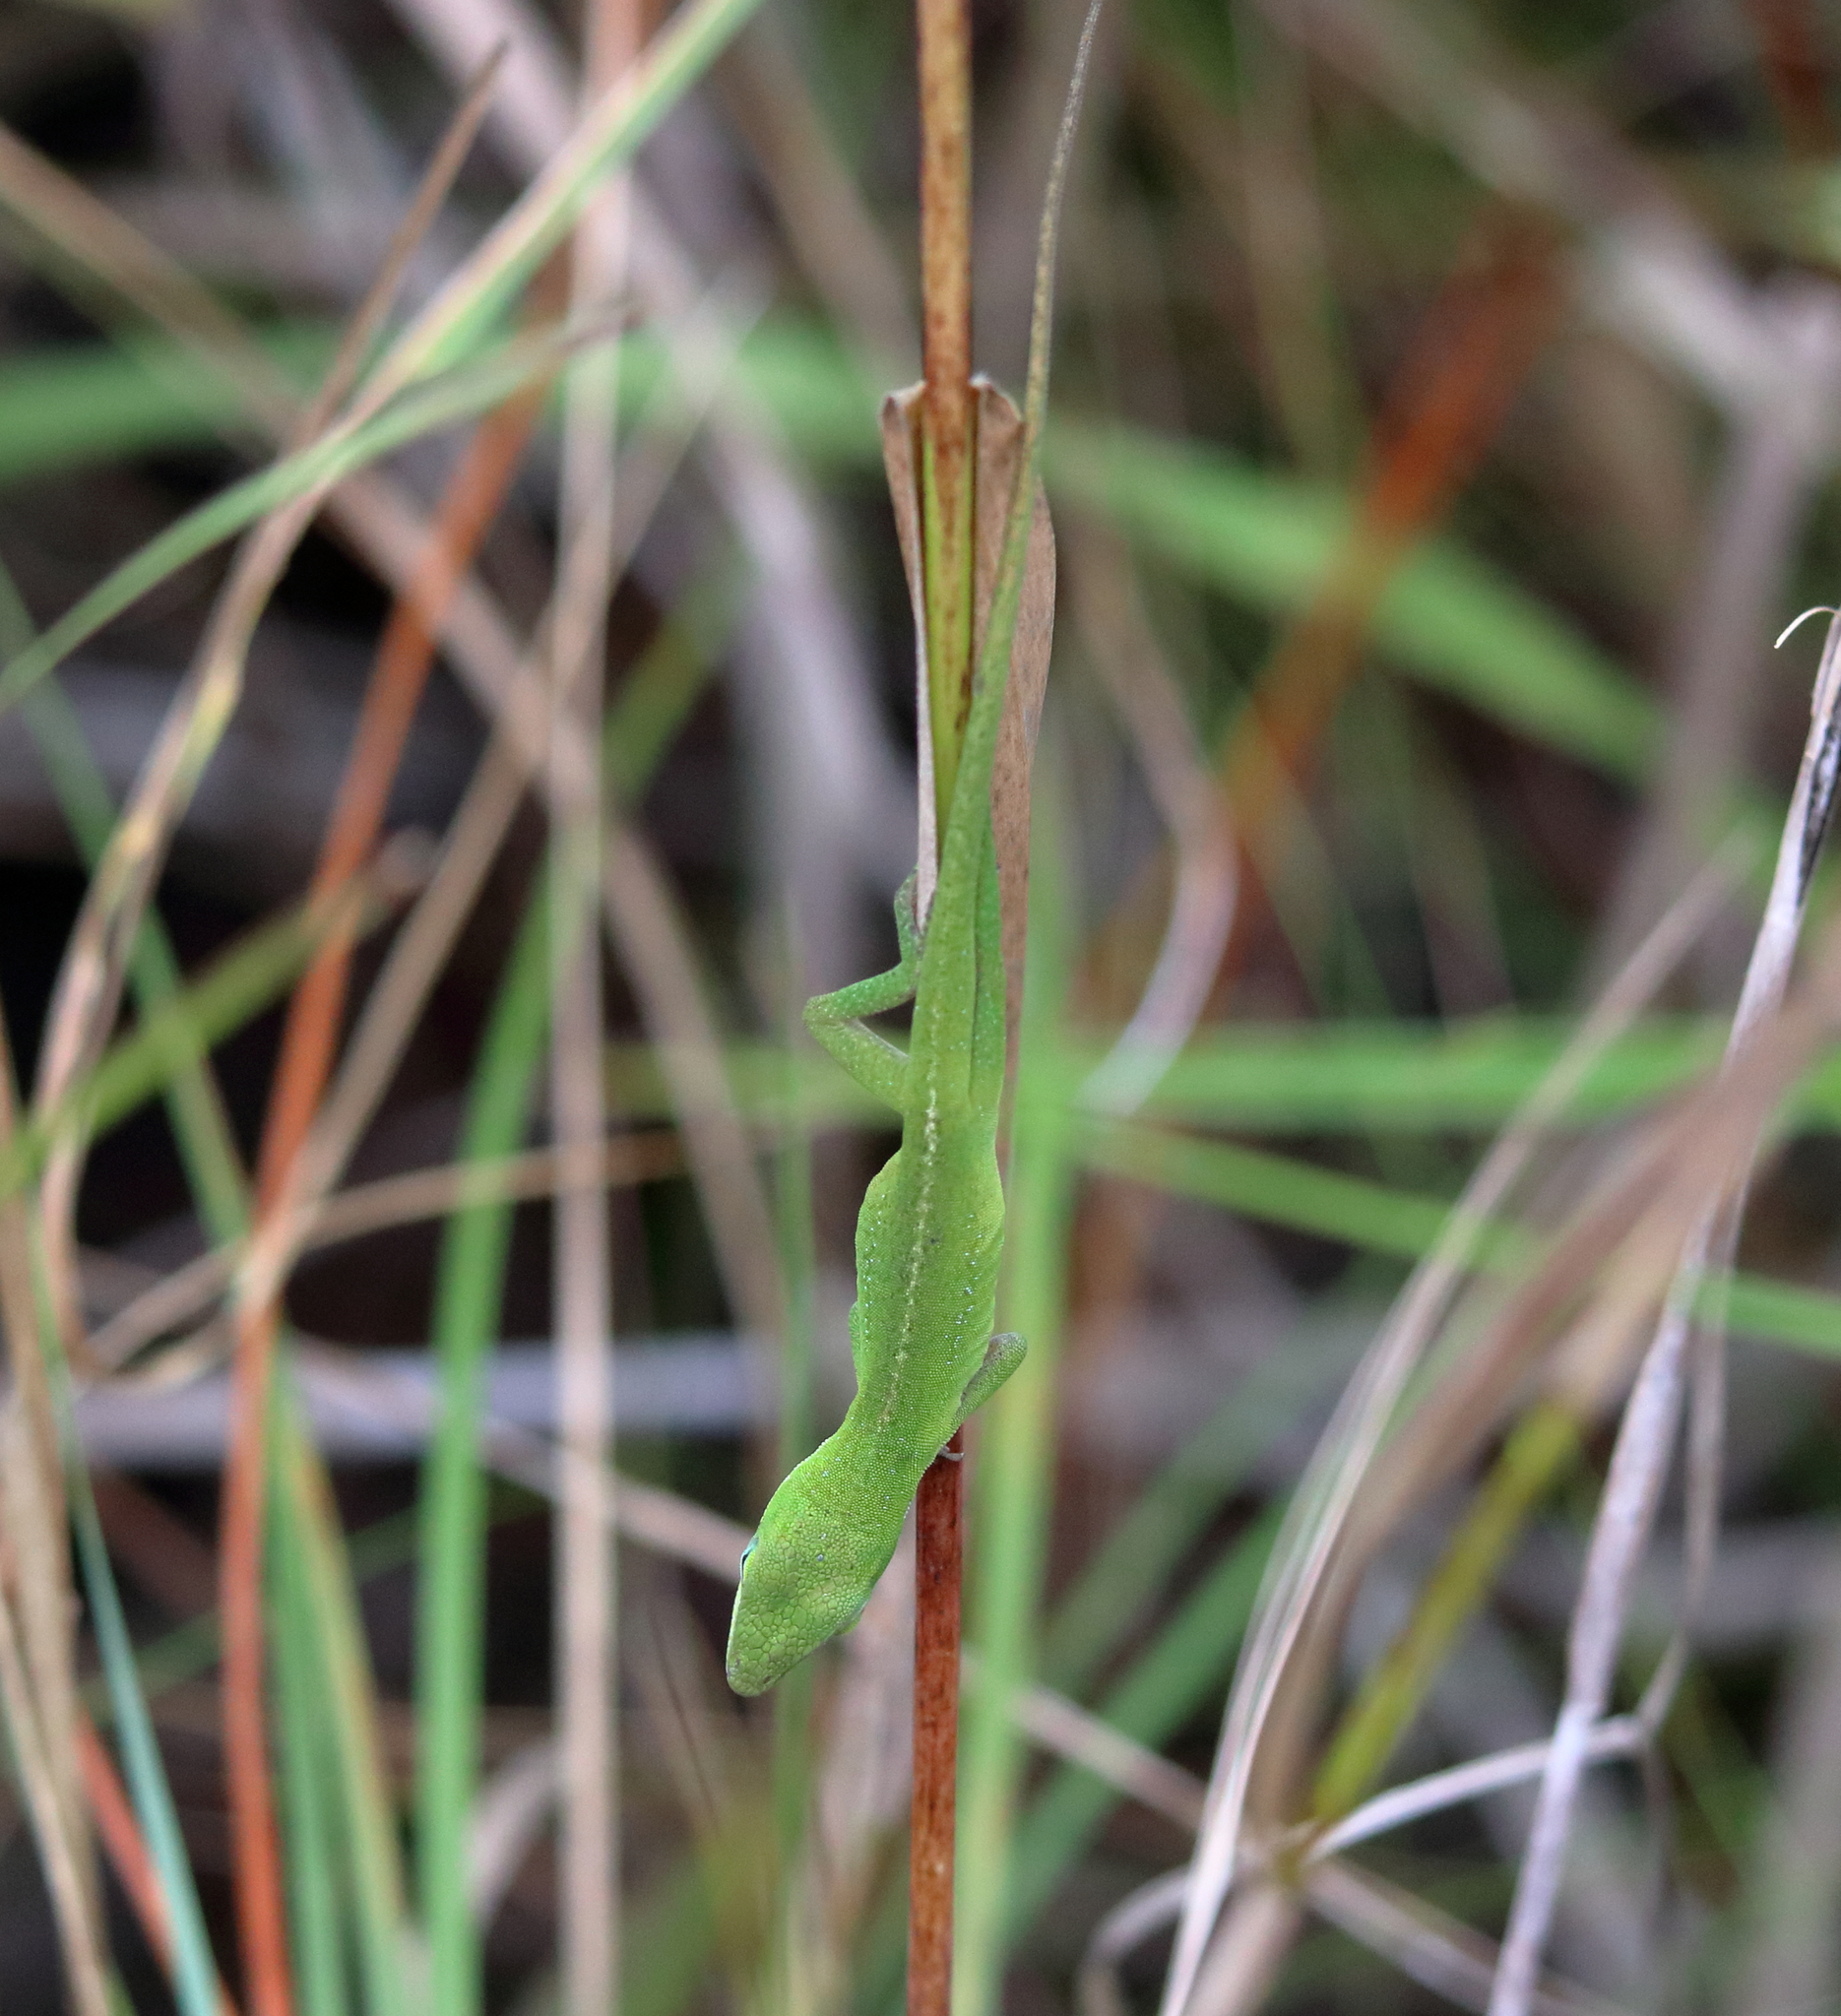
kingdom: Animalia
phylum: Chordata
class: Squamata
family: Dactyloidae
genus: Anolis
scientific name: Anolis carolinensis
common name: Green anole
